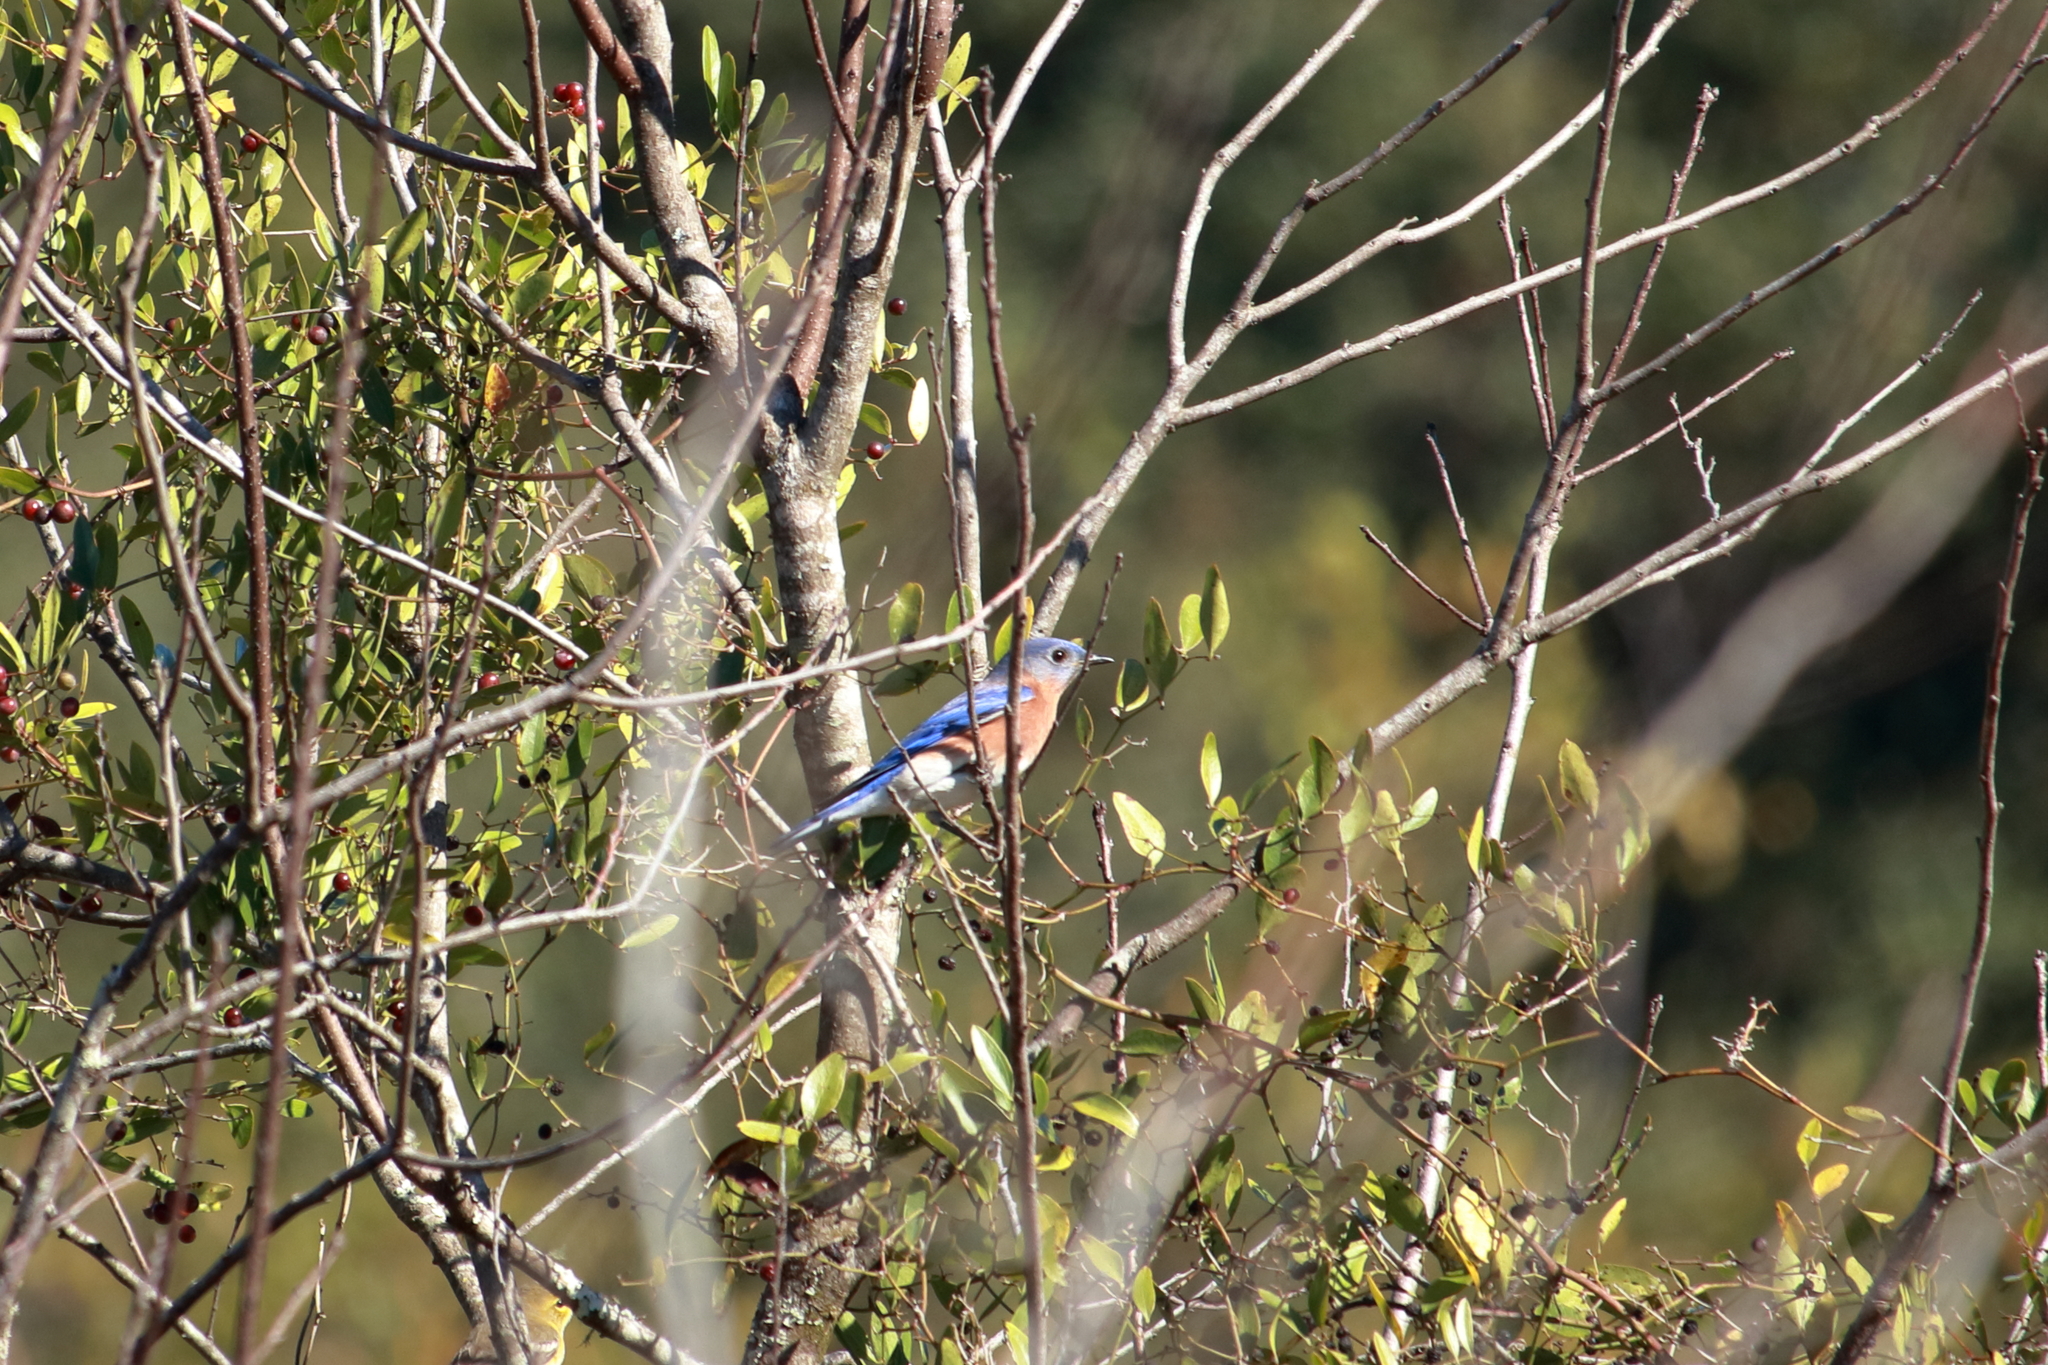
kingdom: Animalia
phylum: Chordata
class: Aves
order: Passeriformes
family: Turdidae
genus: Sialia
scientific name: Sialia sialis
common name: Eastern bluebird
